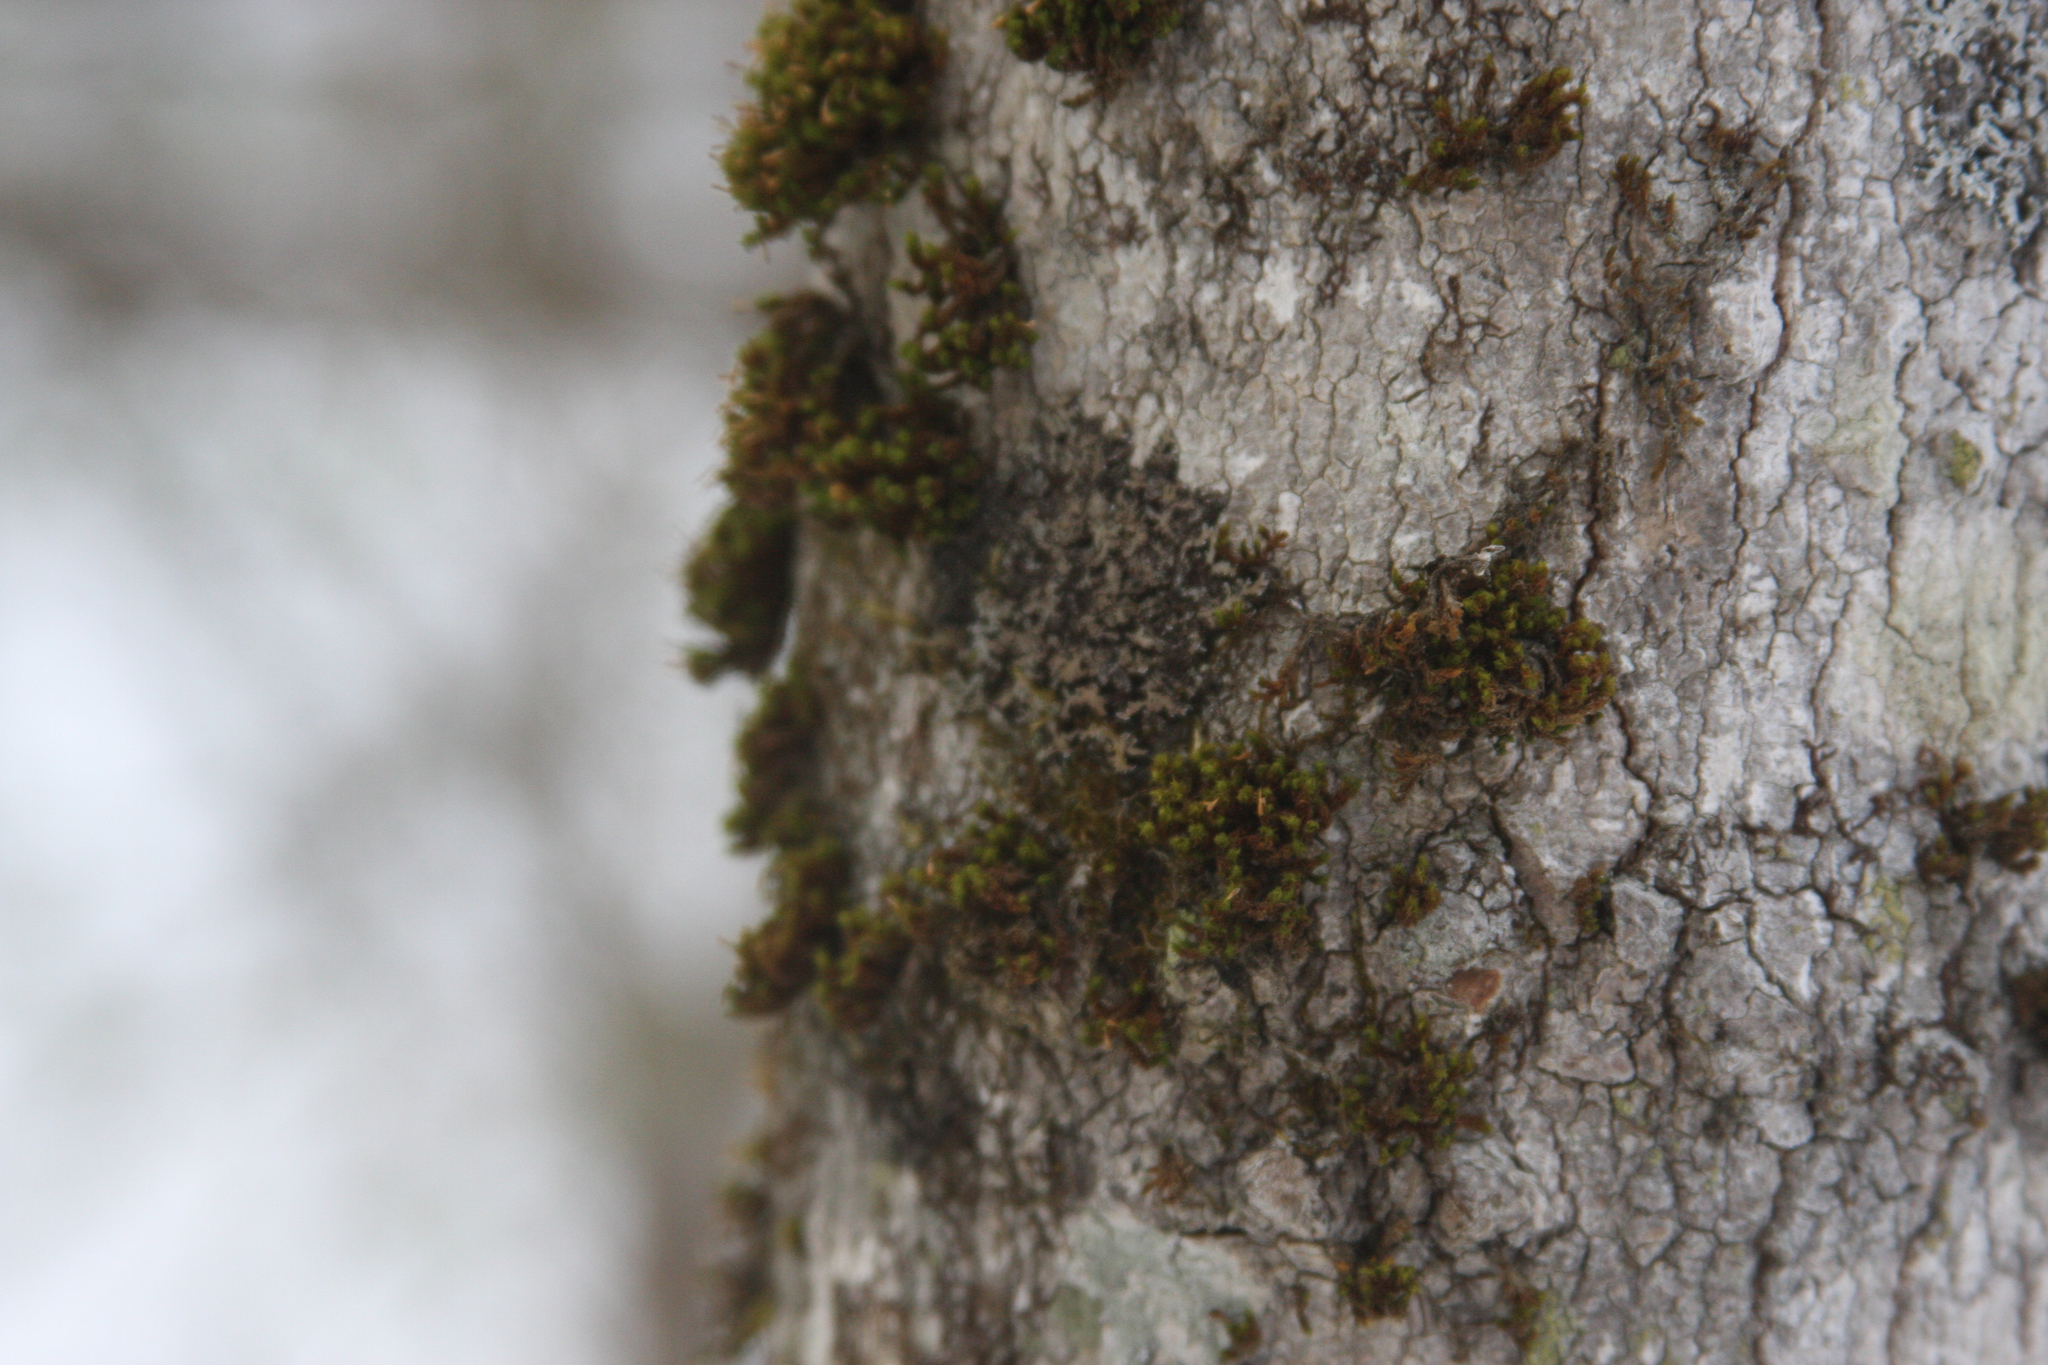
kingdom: Plantae
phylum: Bryophyta
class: Bryopsida
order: Orthotrichales
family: Orthotrichaceae
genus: Ulota
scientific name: Ulota crispa
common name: Crisped pincushion moss
